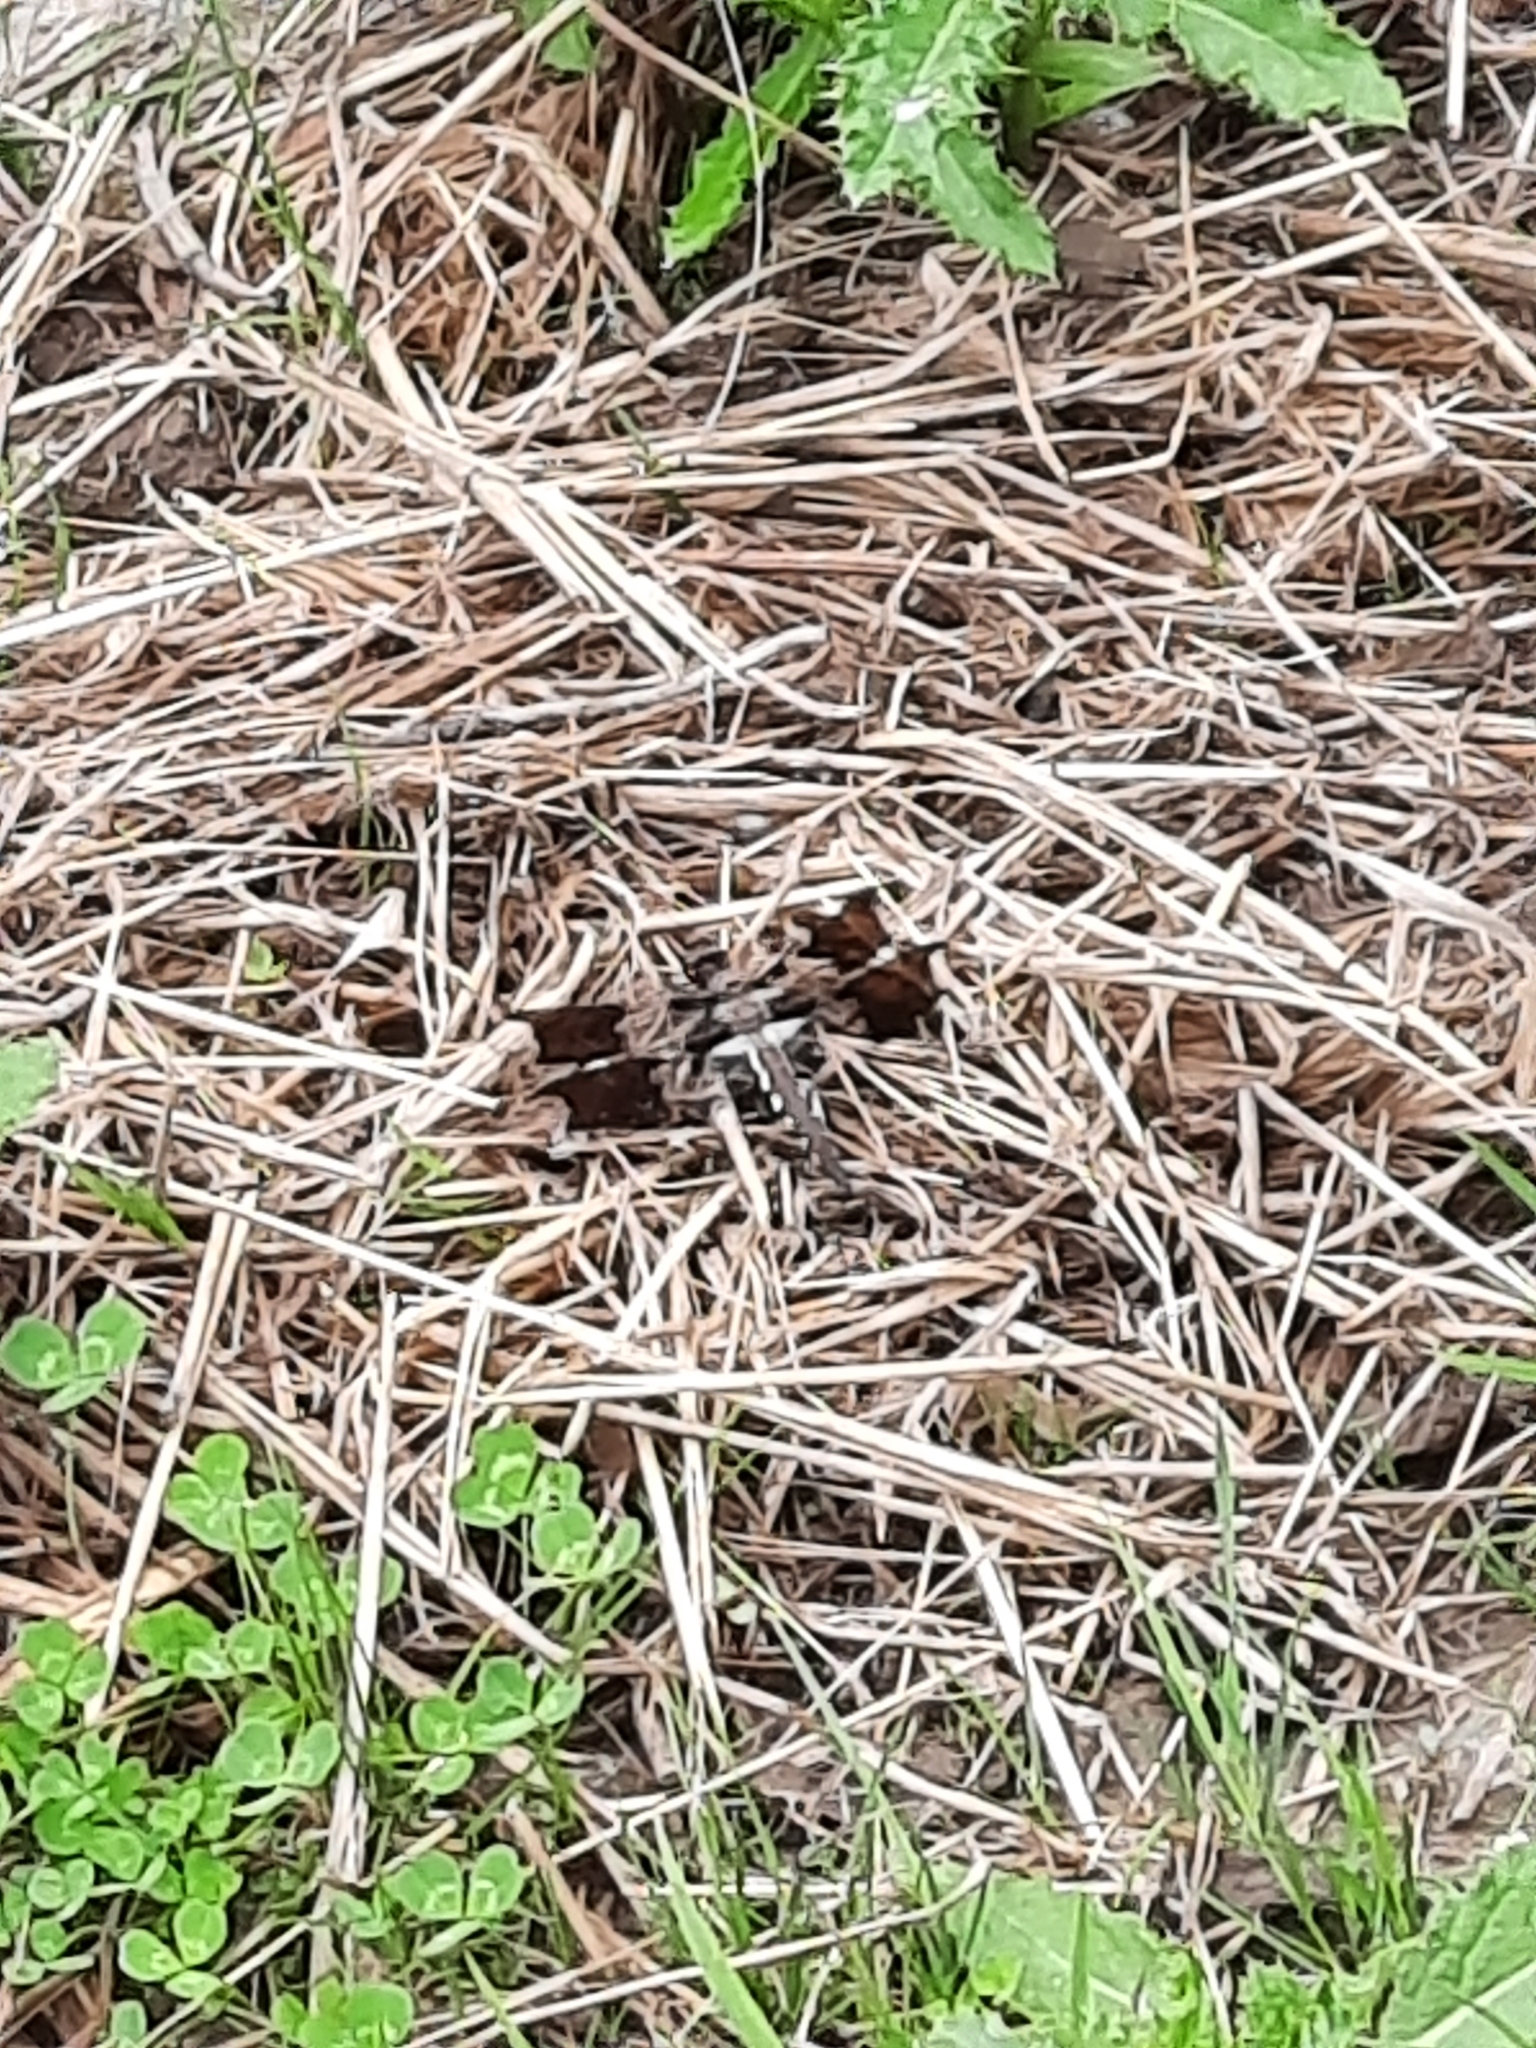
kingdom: Animalia
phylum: Arthropoda
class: Insecta
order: Odonata
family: Libellulidae
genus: Plathemis
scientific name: Plathemis lydia
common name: Common whitetail
